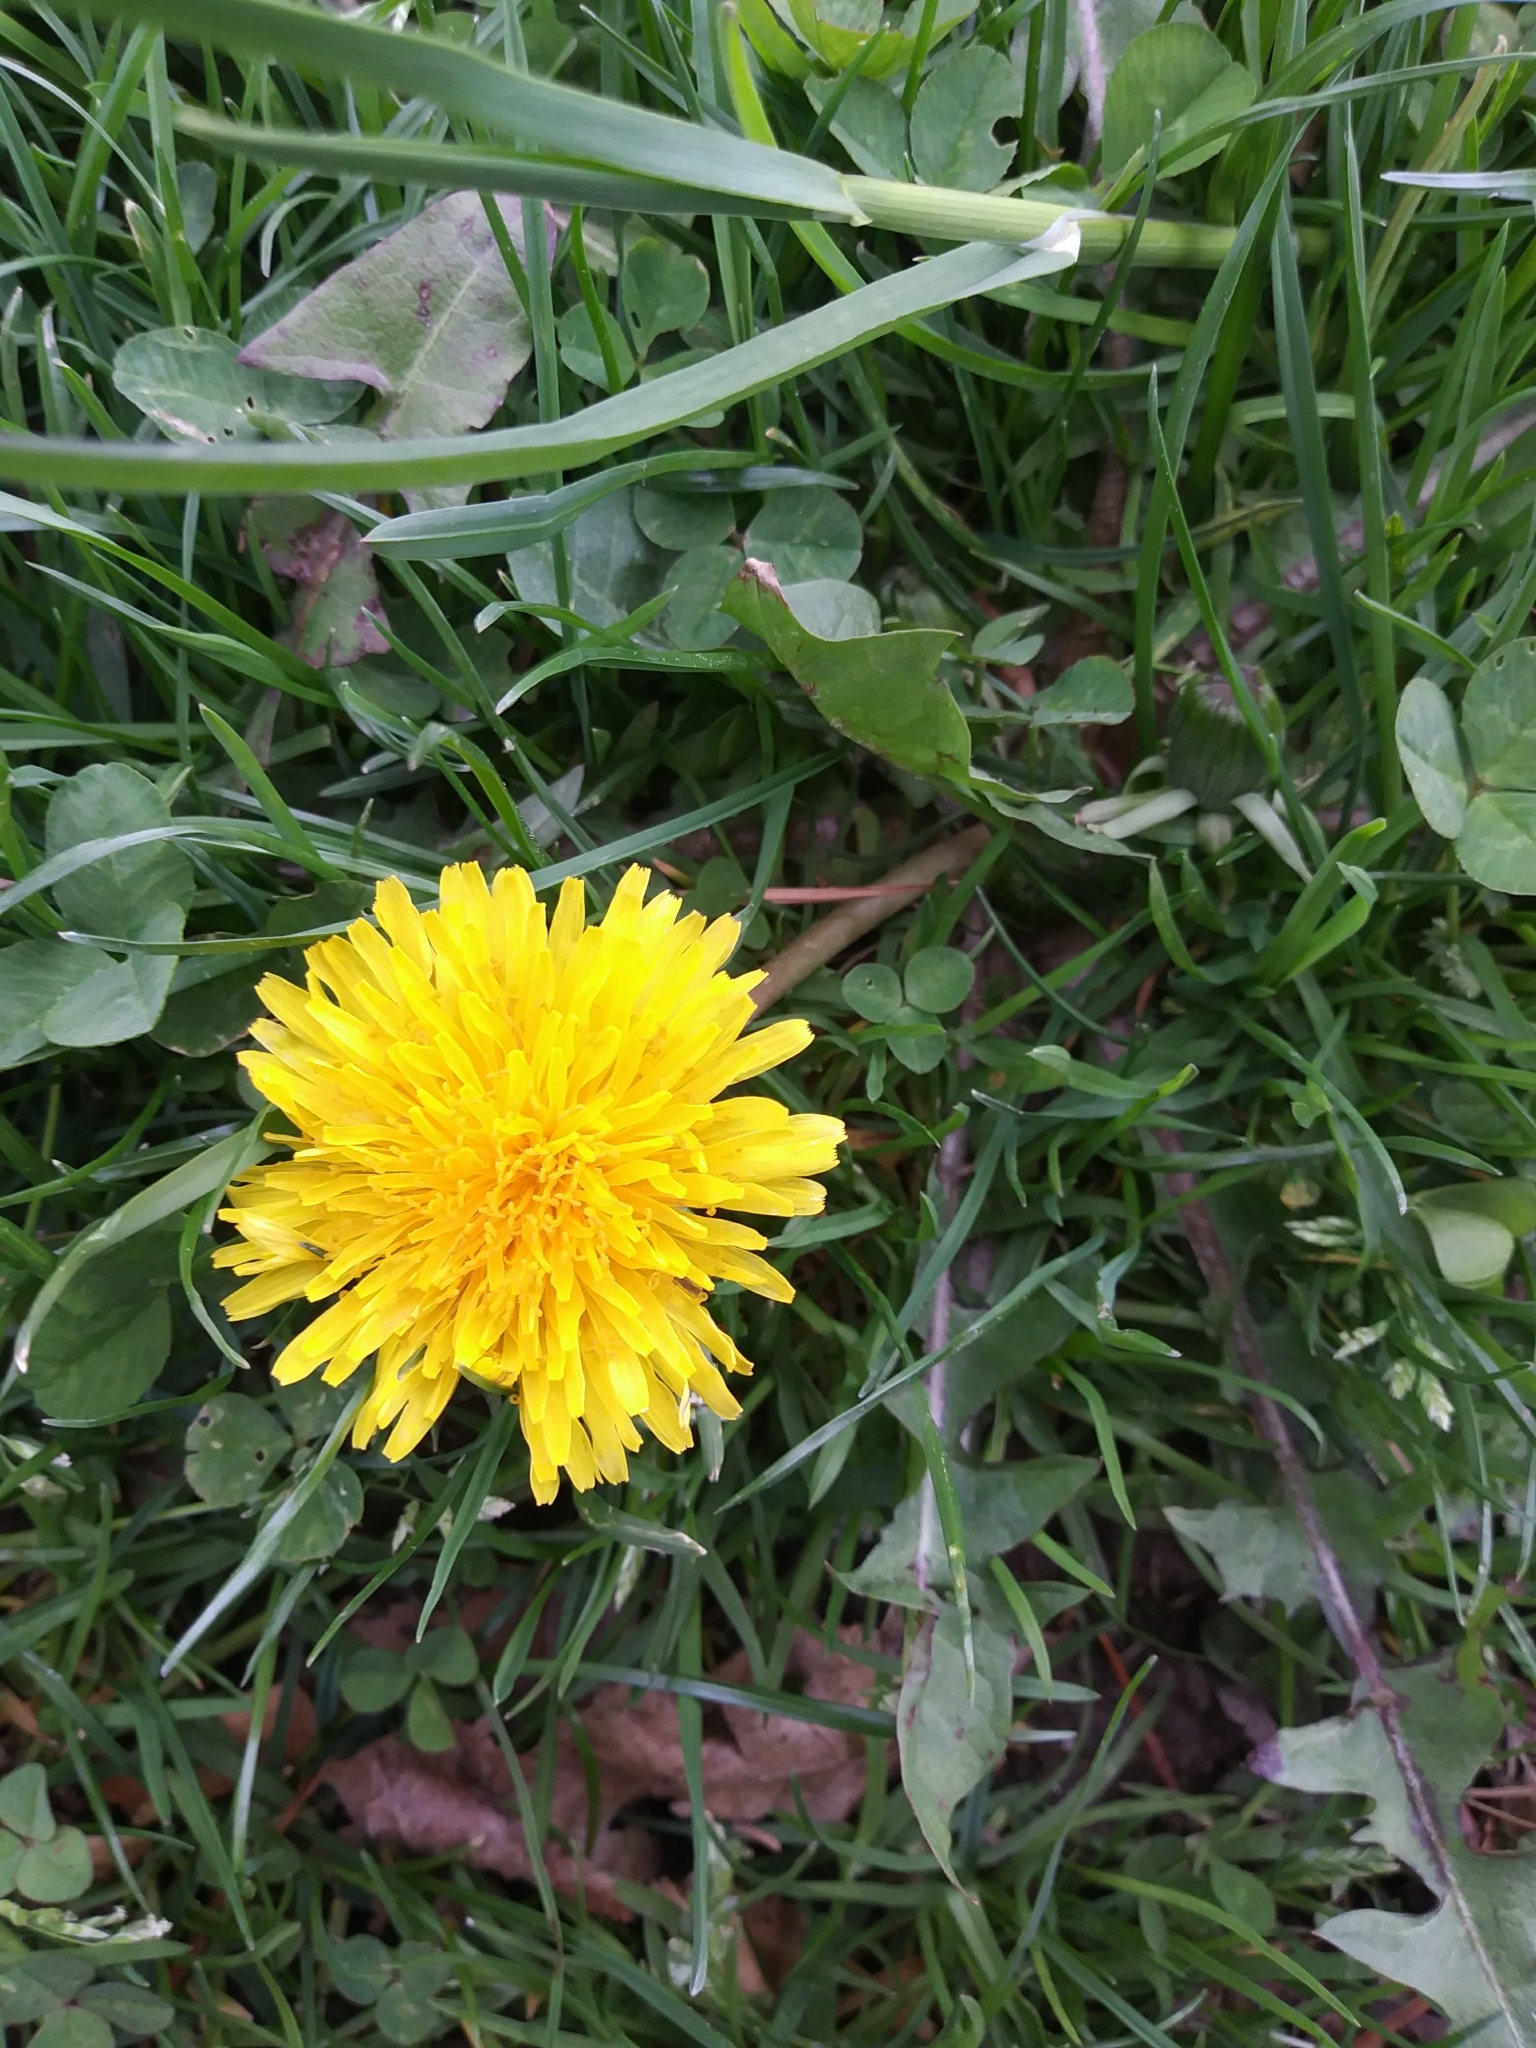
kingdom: Plantae
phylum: Tracheophyta
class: Magnoliopsida
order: Asterales
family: Asteraceae
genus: Taraxacum
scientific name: Taraxacum officinale
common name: Common dandelion
